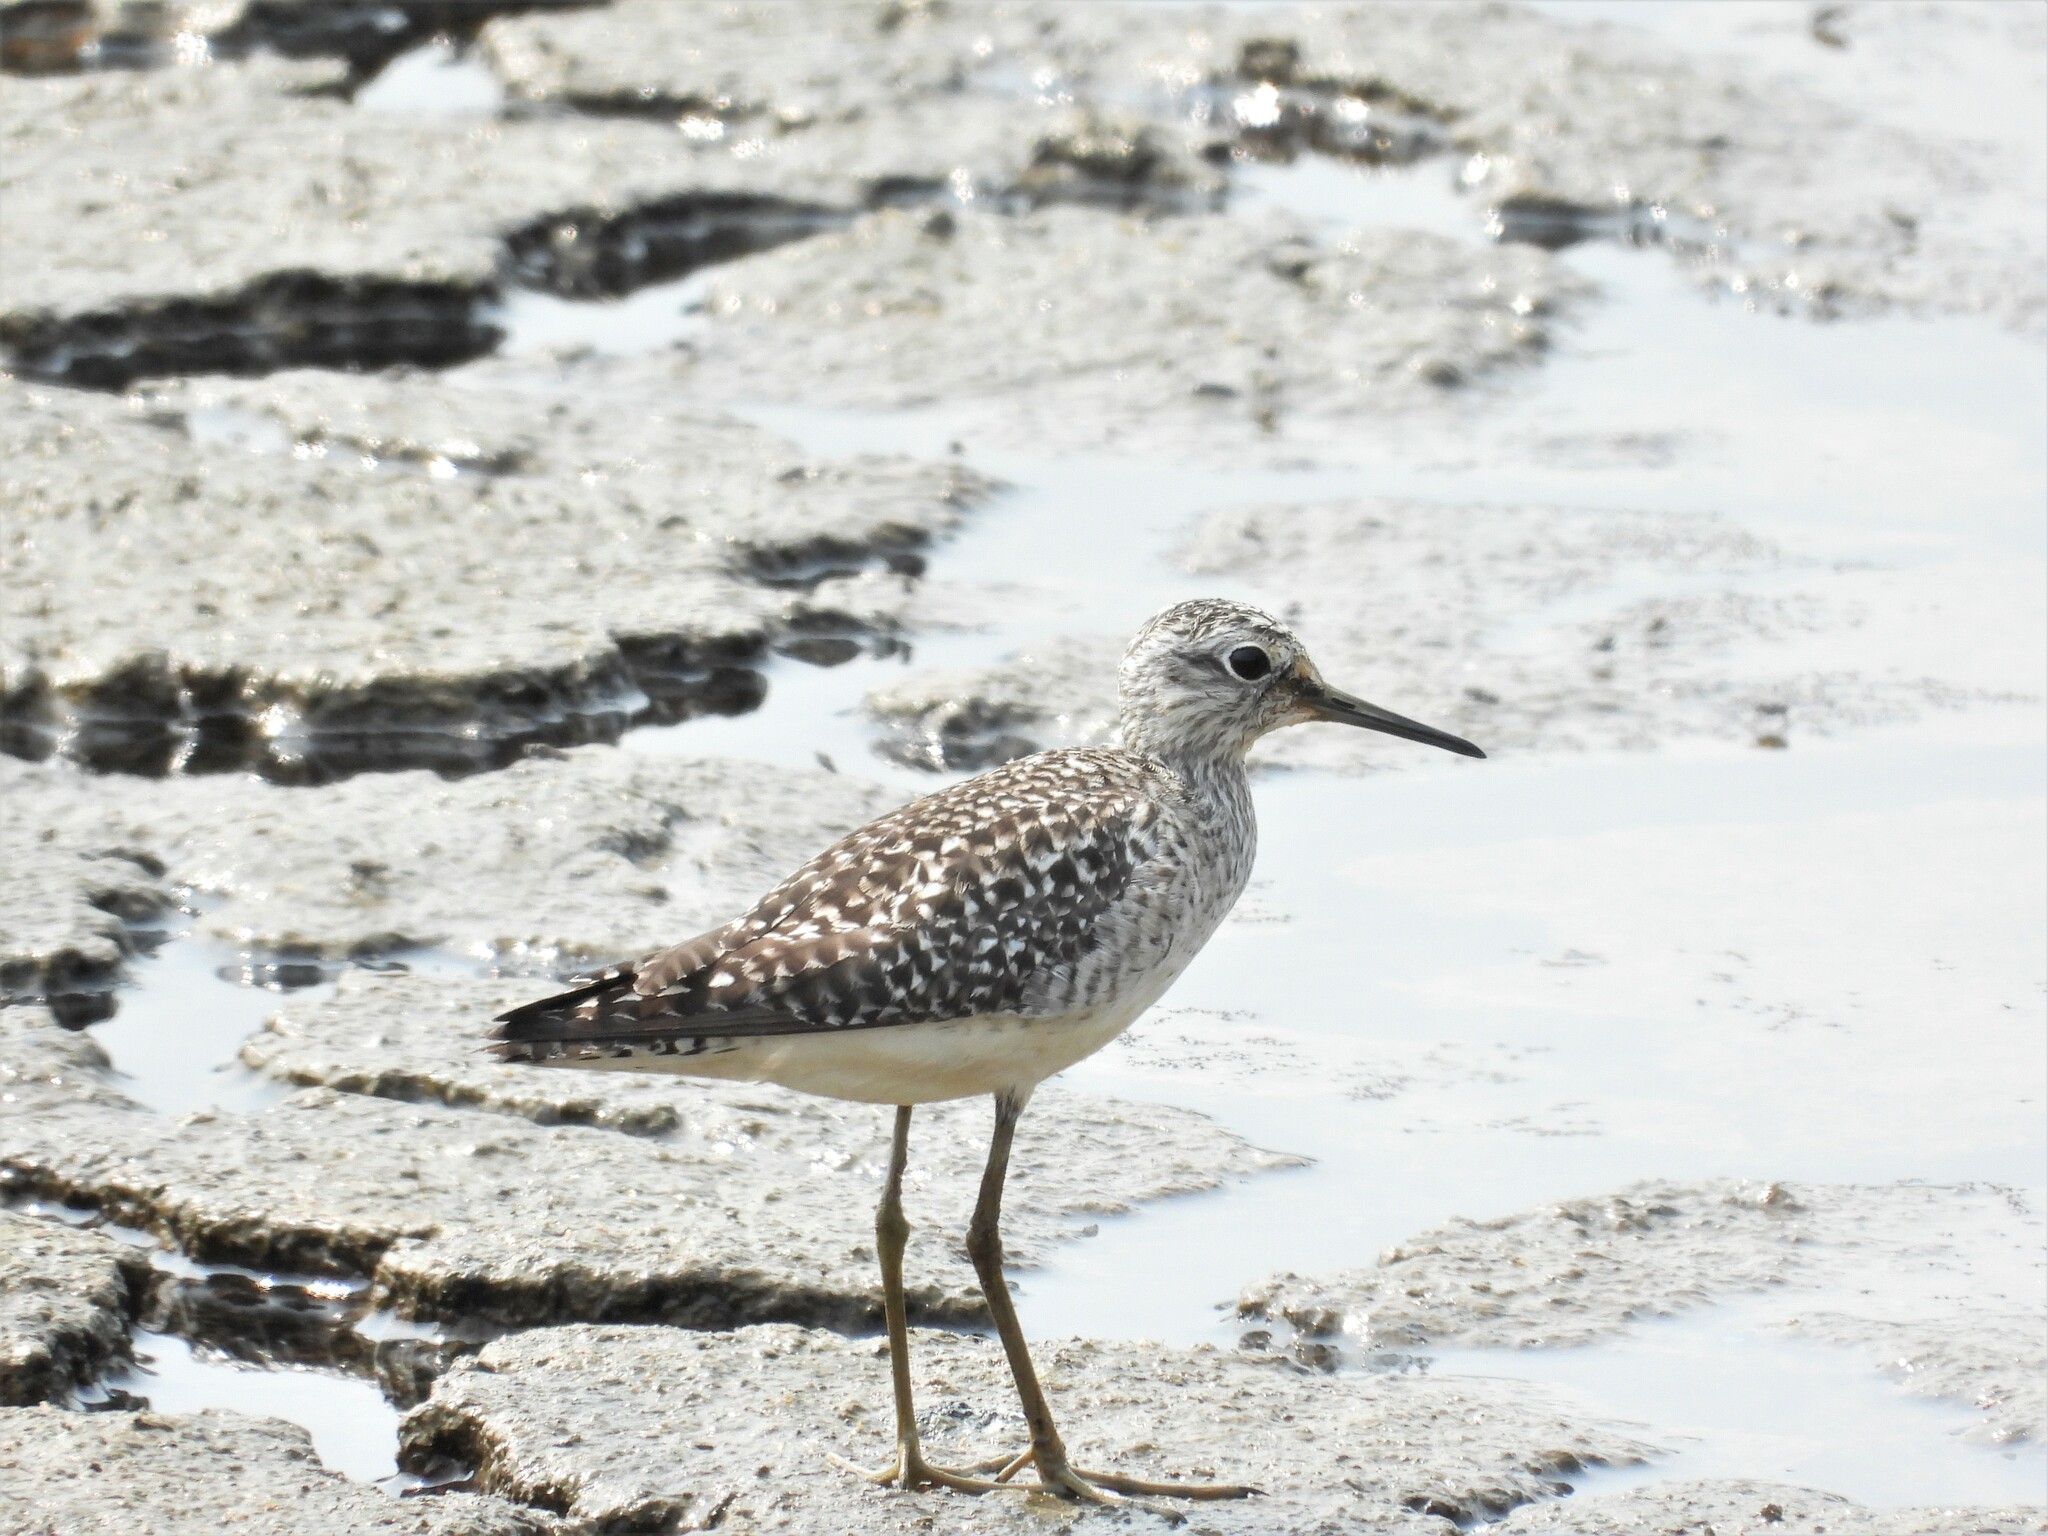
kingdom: Animalia
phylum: Chordata
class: Aves
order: Charadriiformes
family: Scolopacidae
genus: Tringa
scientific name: Tringa glareola
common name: Wood sandpiper
